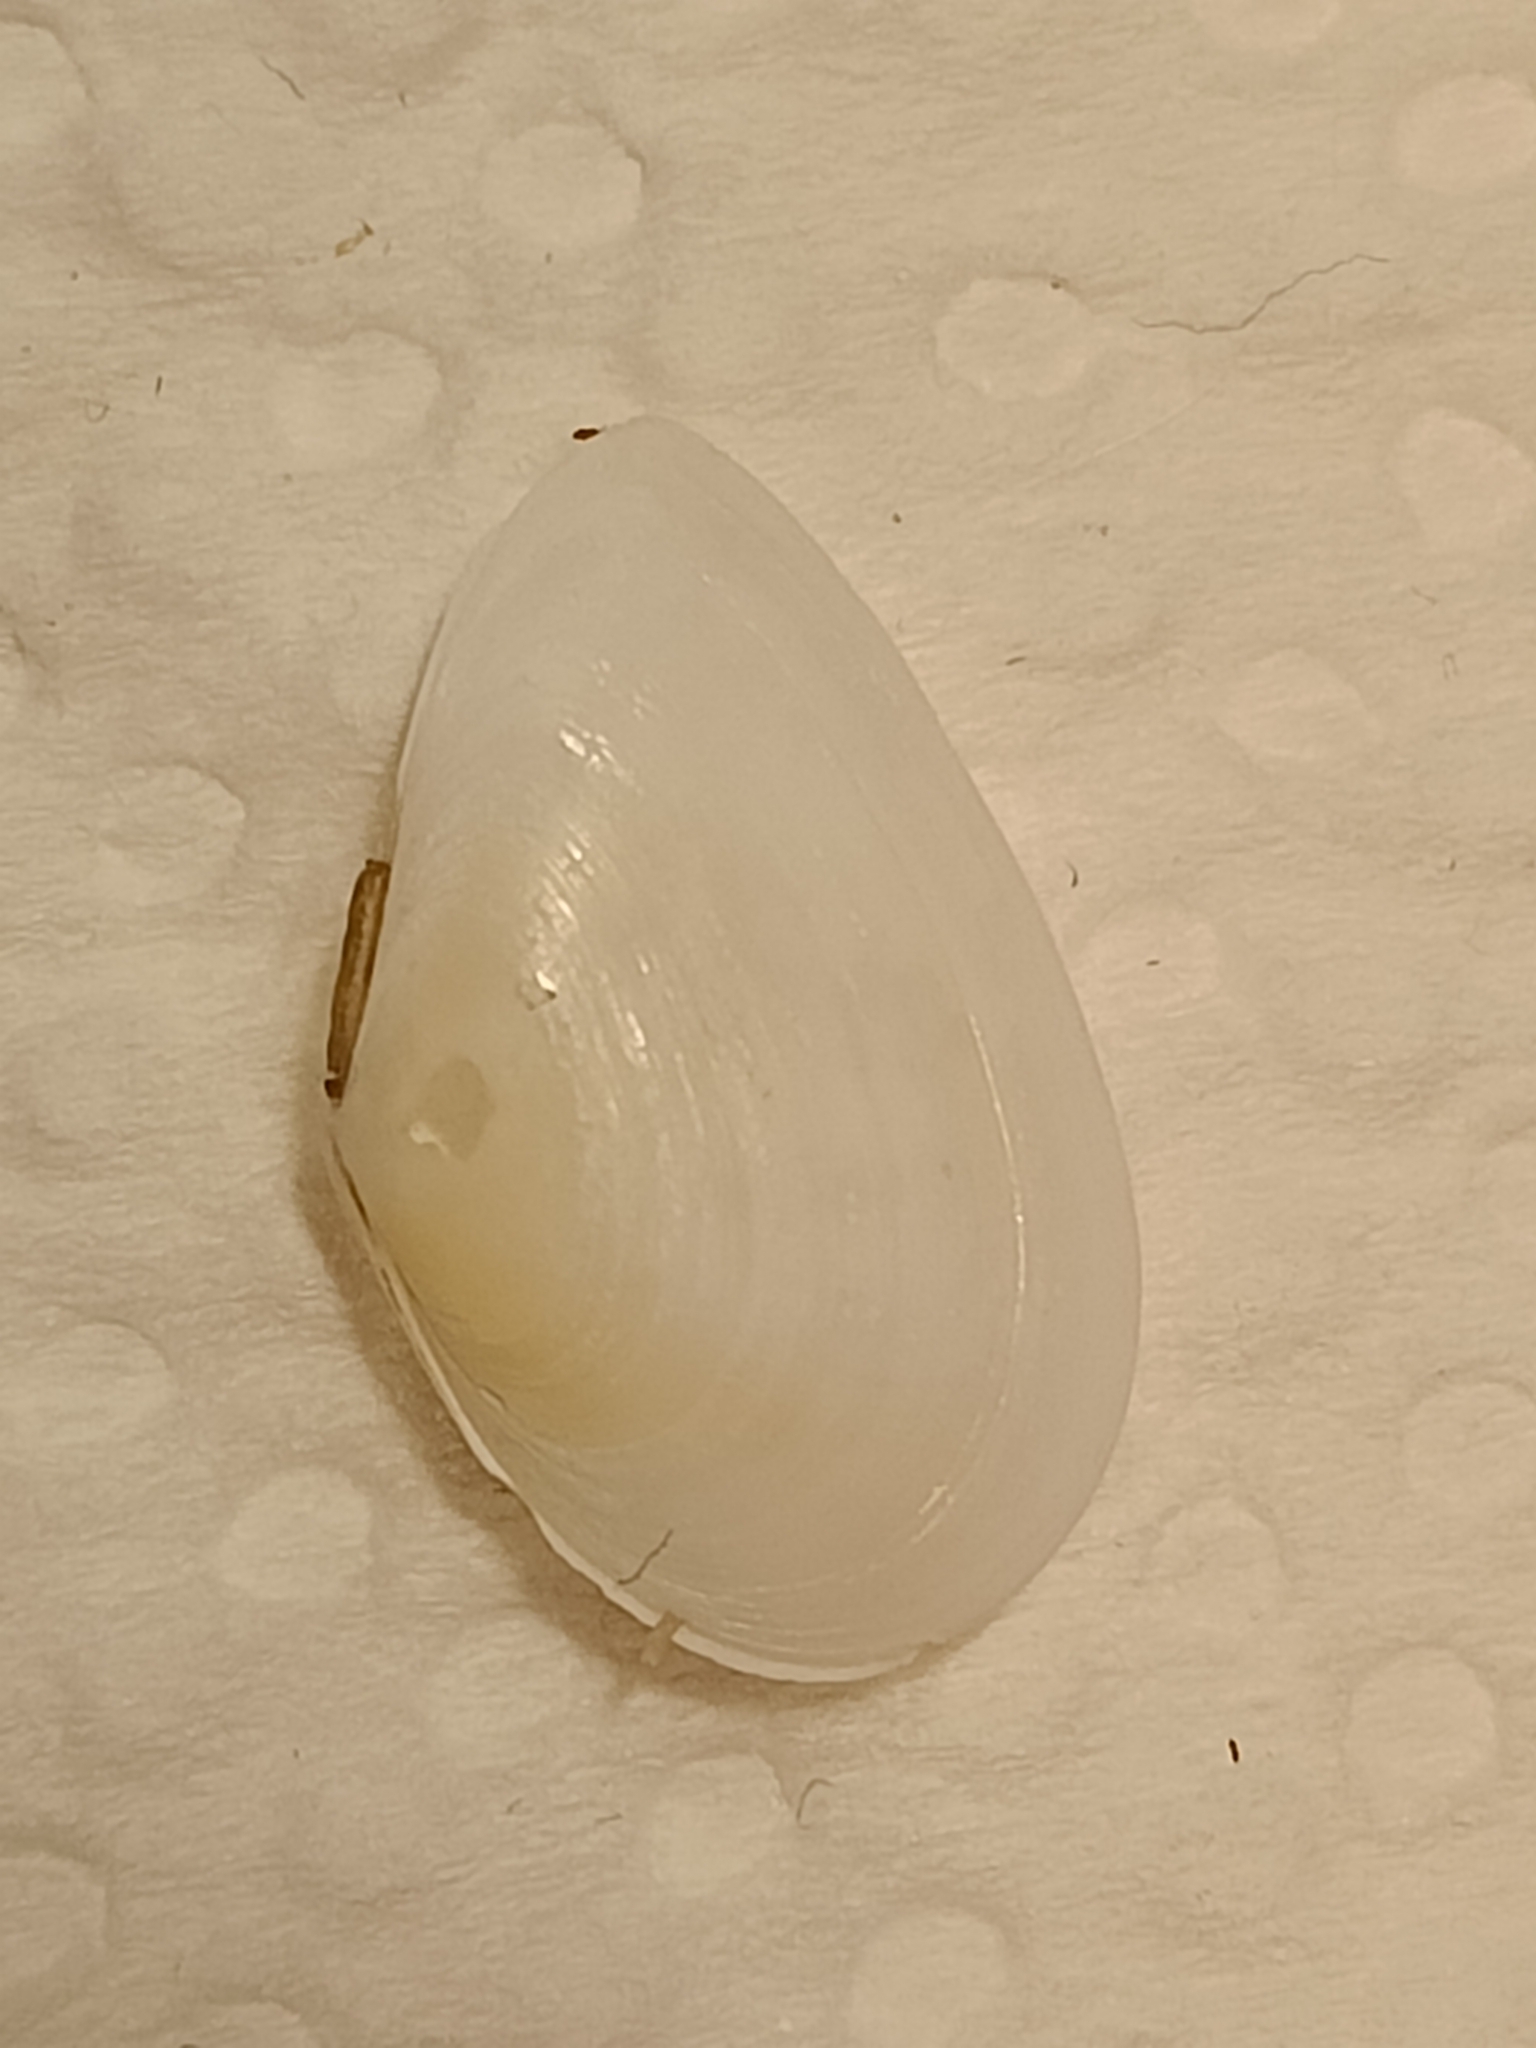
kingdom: Animalia
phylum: Mollusca
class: Bivalvia
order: Cardiida
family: Tellinidae
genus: Fabulina
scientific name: Fabulina fabula
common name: Bean-like tellin
